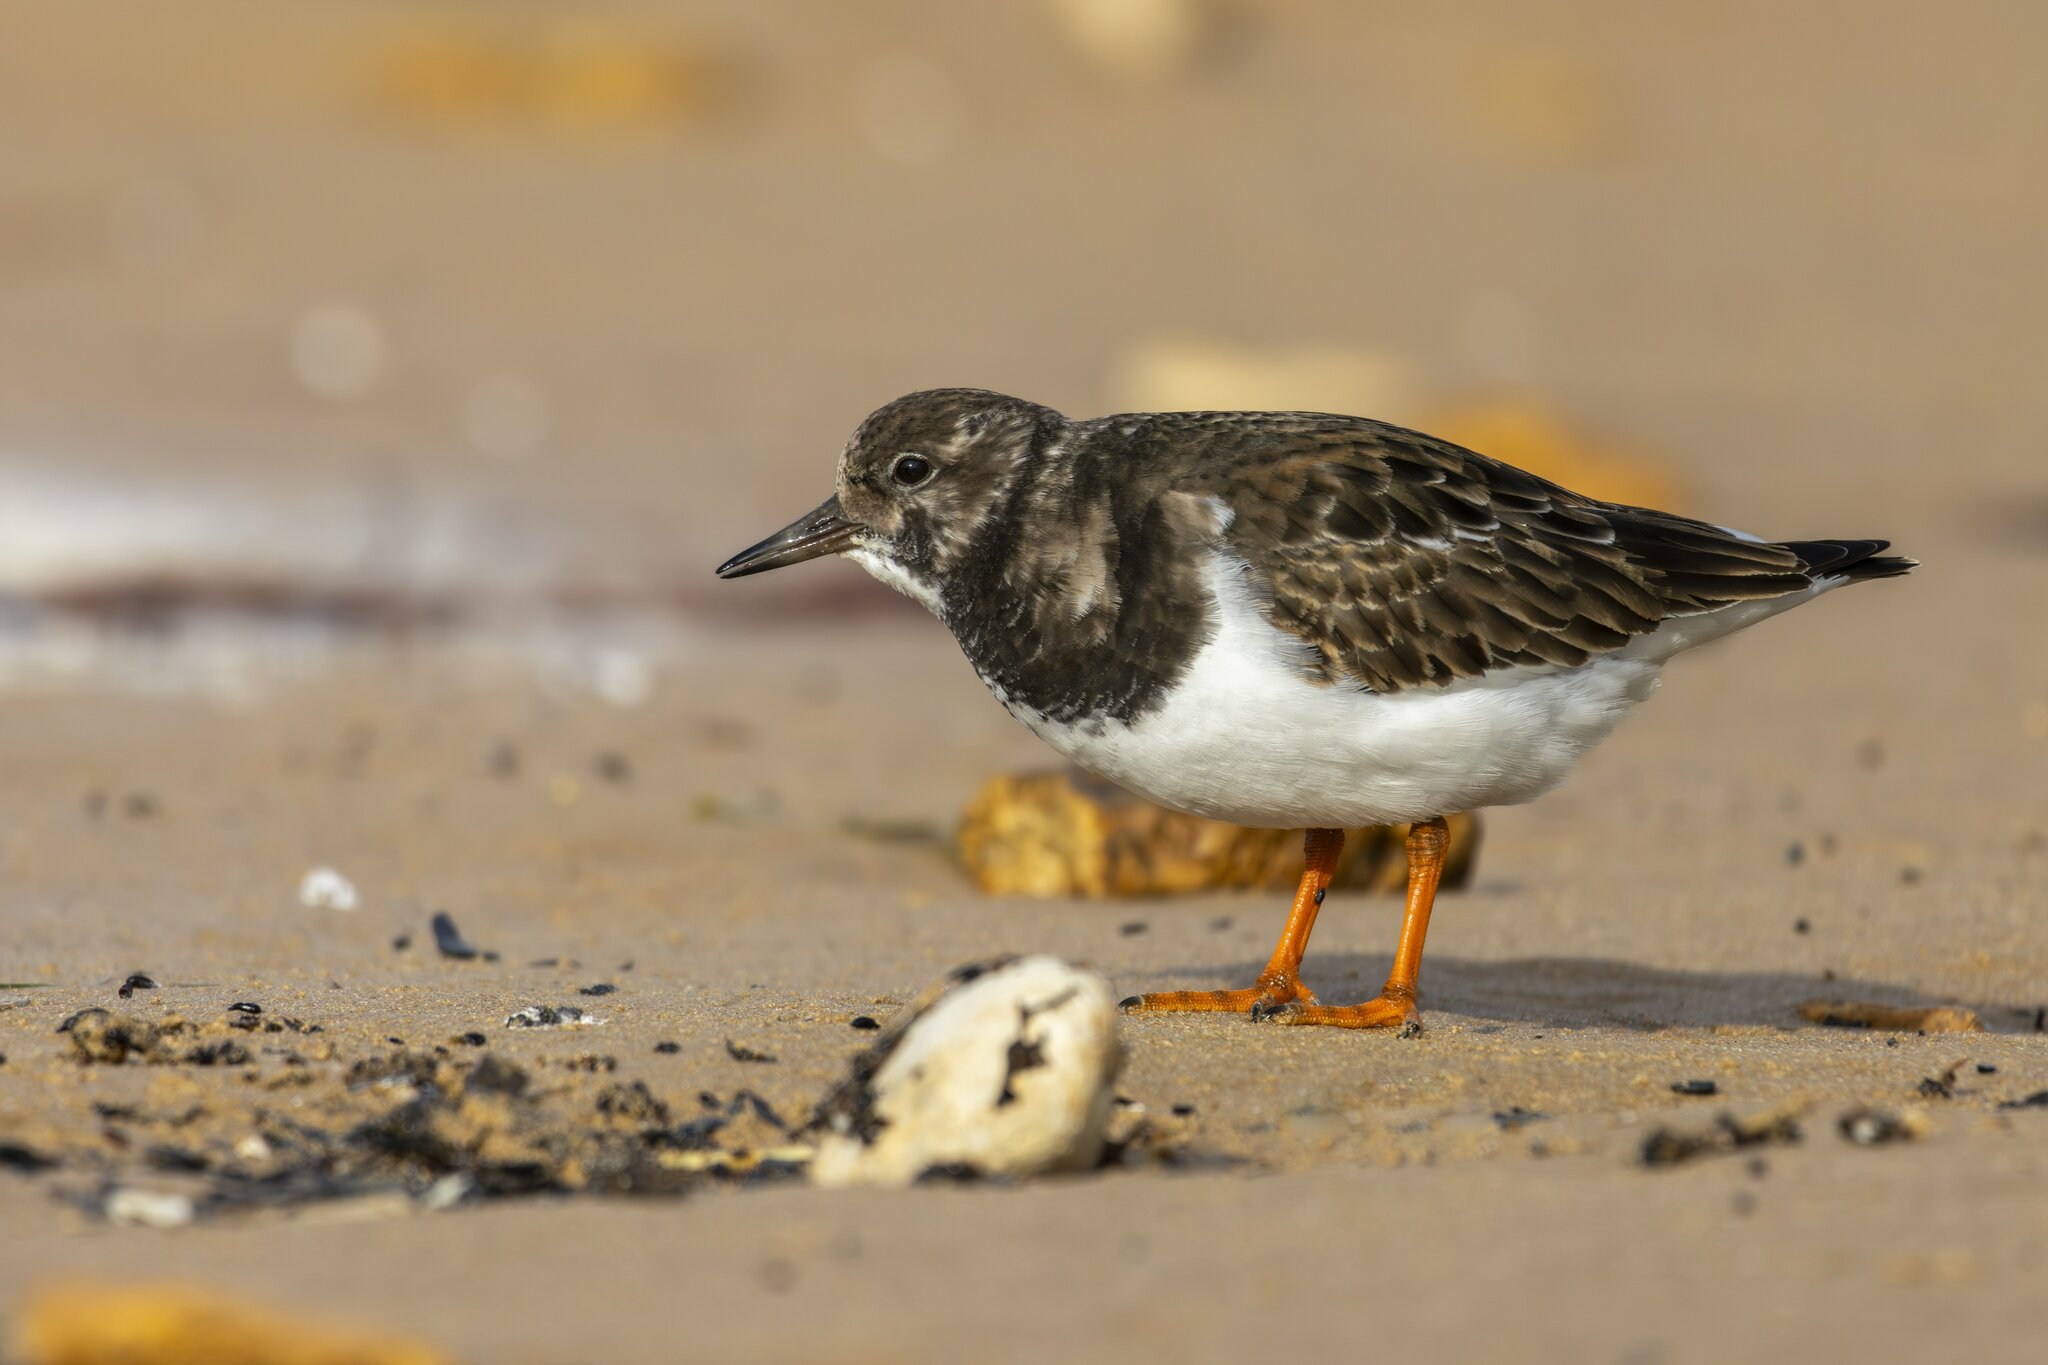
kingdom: Animalia
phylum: Chordata
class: Aves
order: Charadriiformes
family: Scolopacidae
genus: Arenaria
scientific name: Arenaria interpres
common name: Ruddy turnstone
